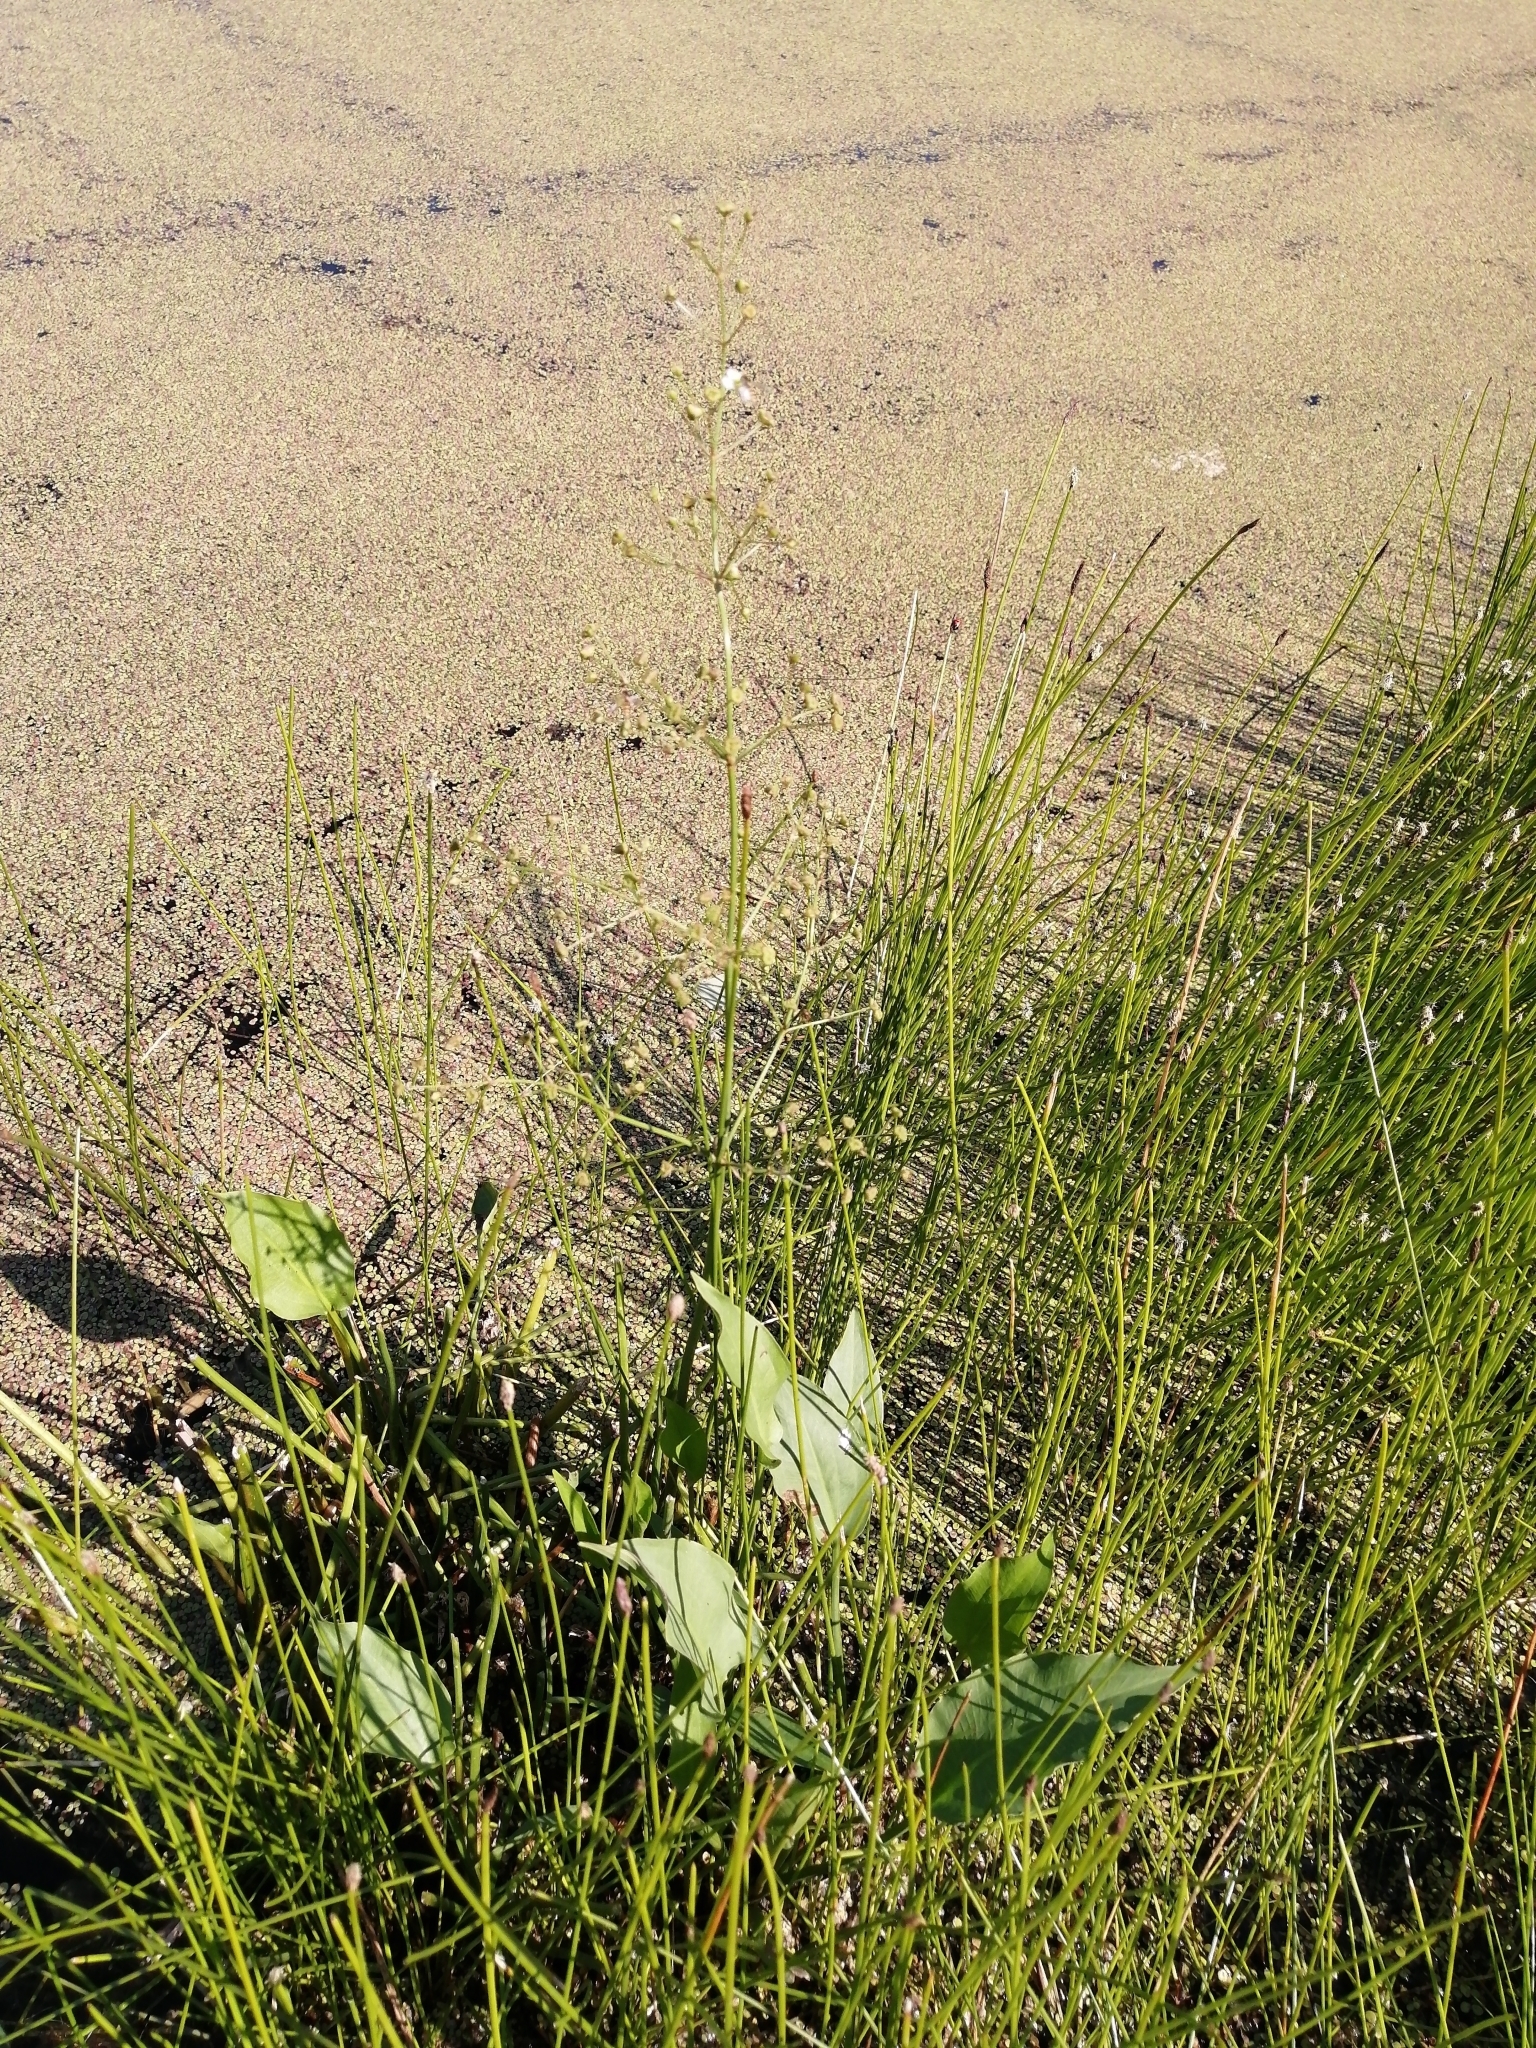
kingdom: Plantae
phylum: Tracheophyta
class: Liliopsida
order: Alismatales
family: Alismataceae
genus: Alisma
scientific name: Alisma plantago-aquatica
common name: Water-plantain
